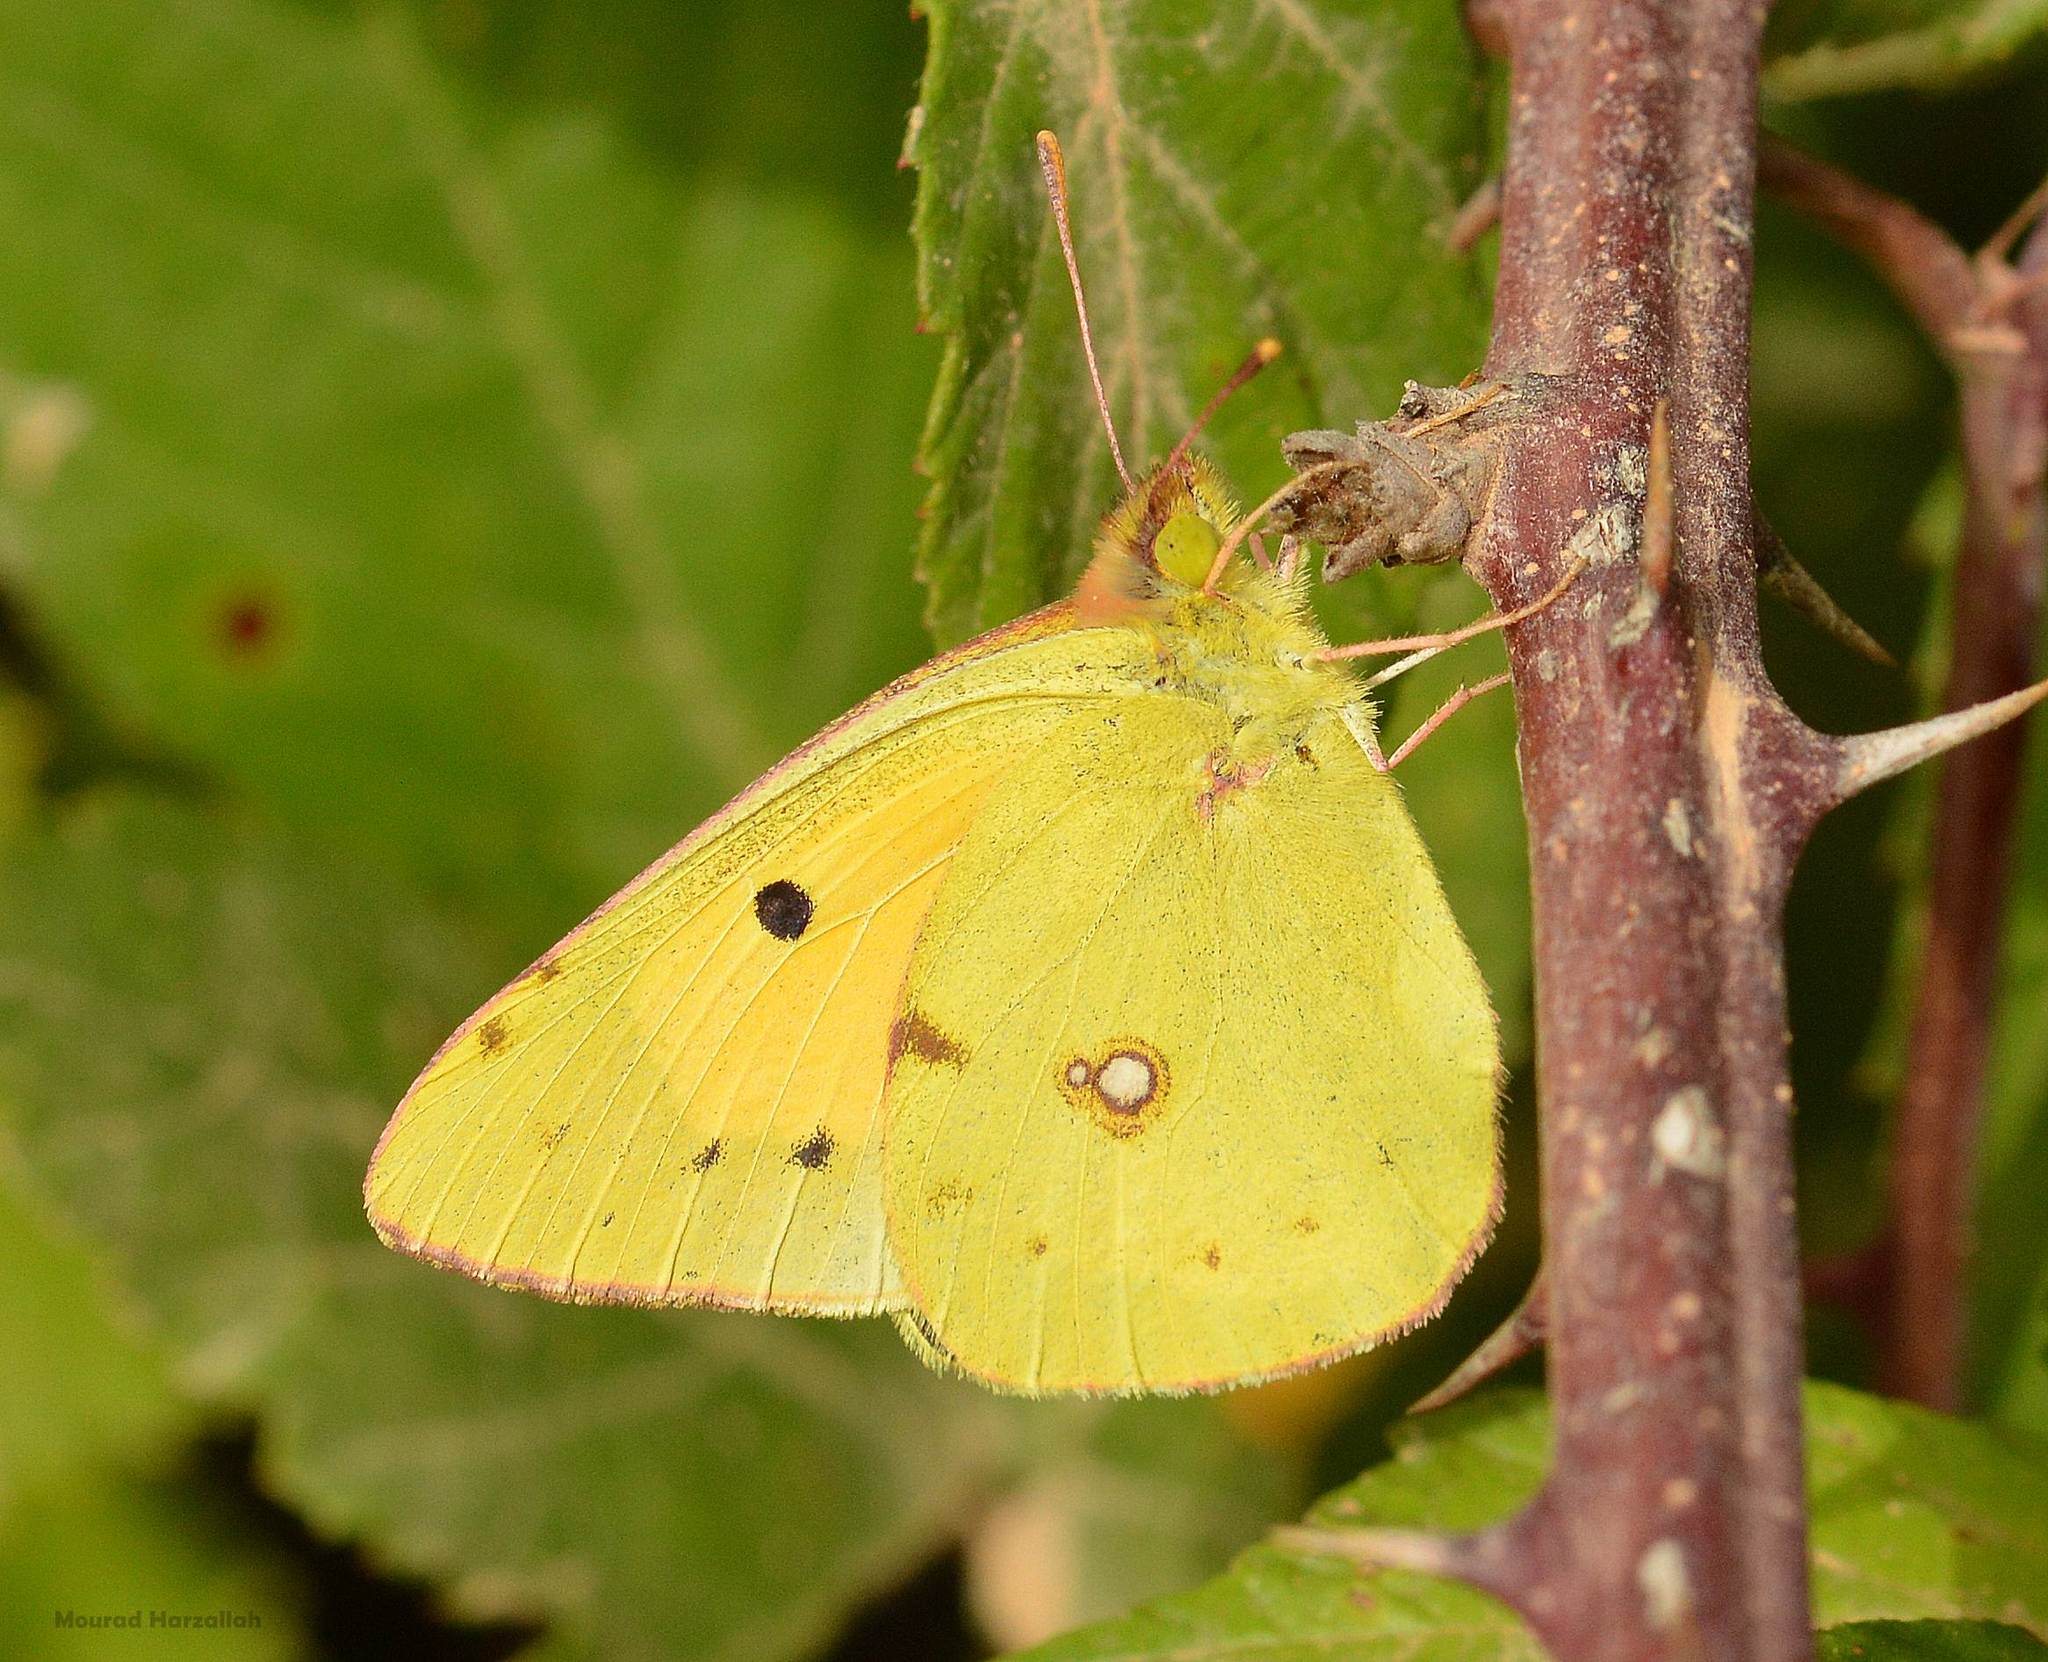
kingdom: Animalia
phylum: Arthropoda
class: Insecta
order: Lepidoptera
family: Pieridae
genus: Colias
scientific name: Colias croceus
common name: Clouded yellow
